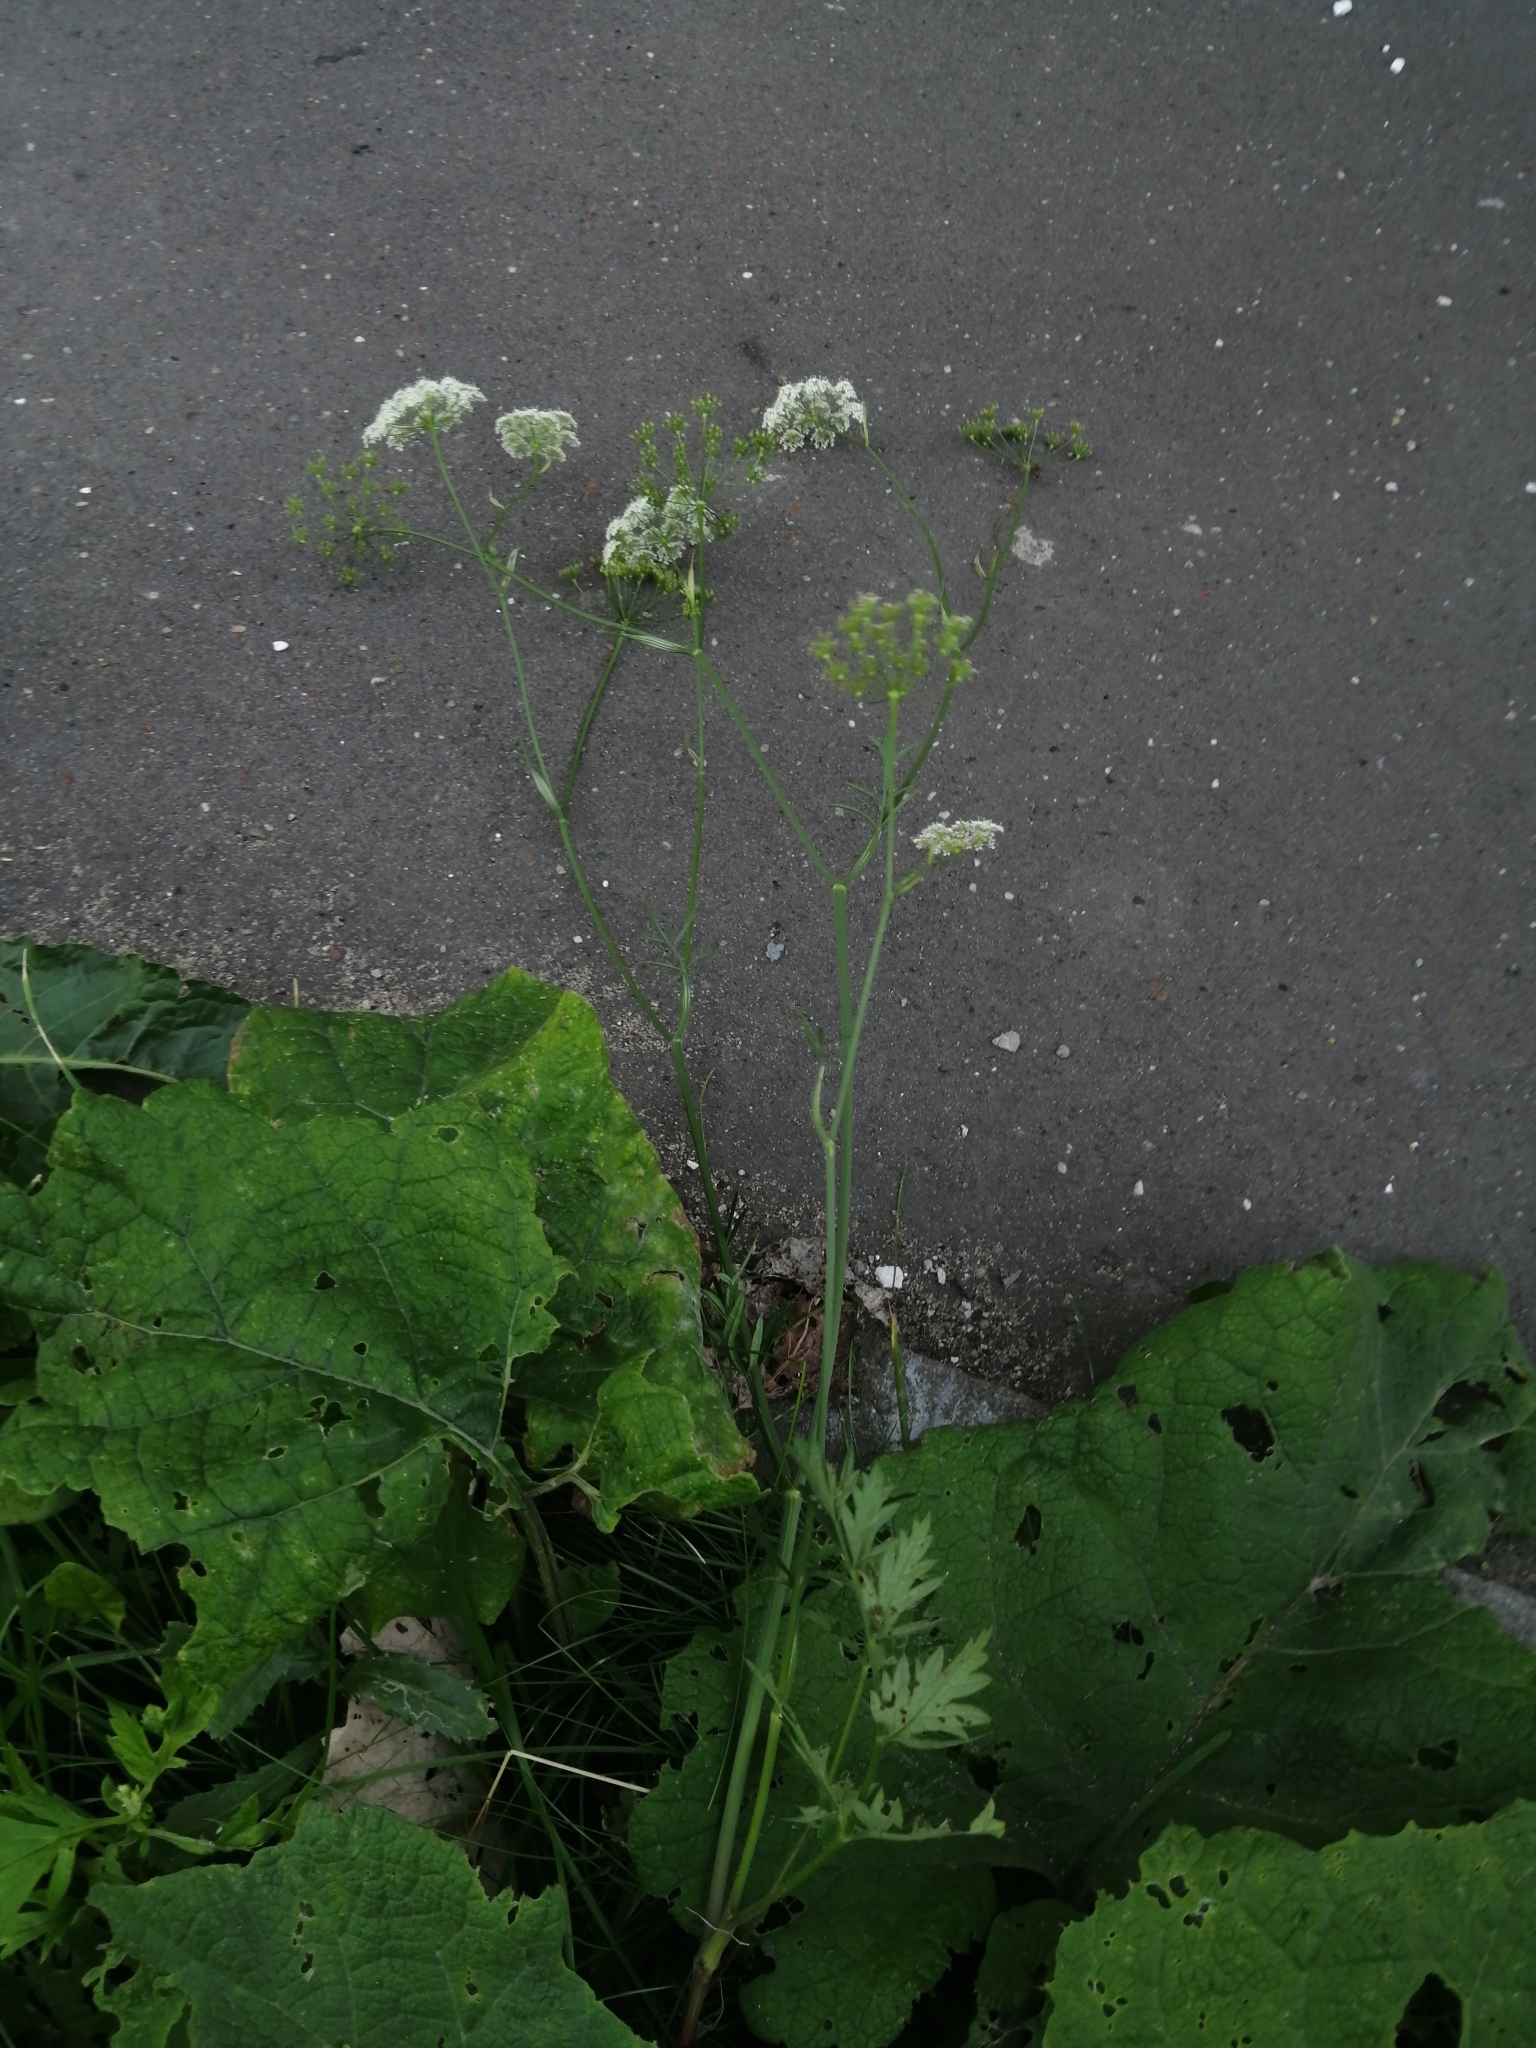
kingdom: Plantae
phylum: Tracheophyta
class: Magnoliopsida
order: Apiales
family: Apiaceae
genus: Pimpinella
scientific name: Pimpinella saxifraga
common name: Burnet-saxifrage
